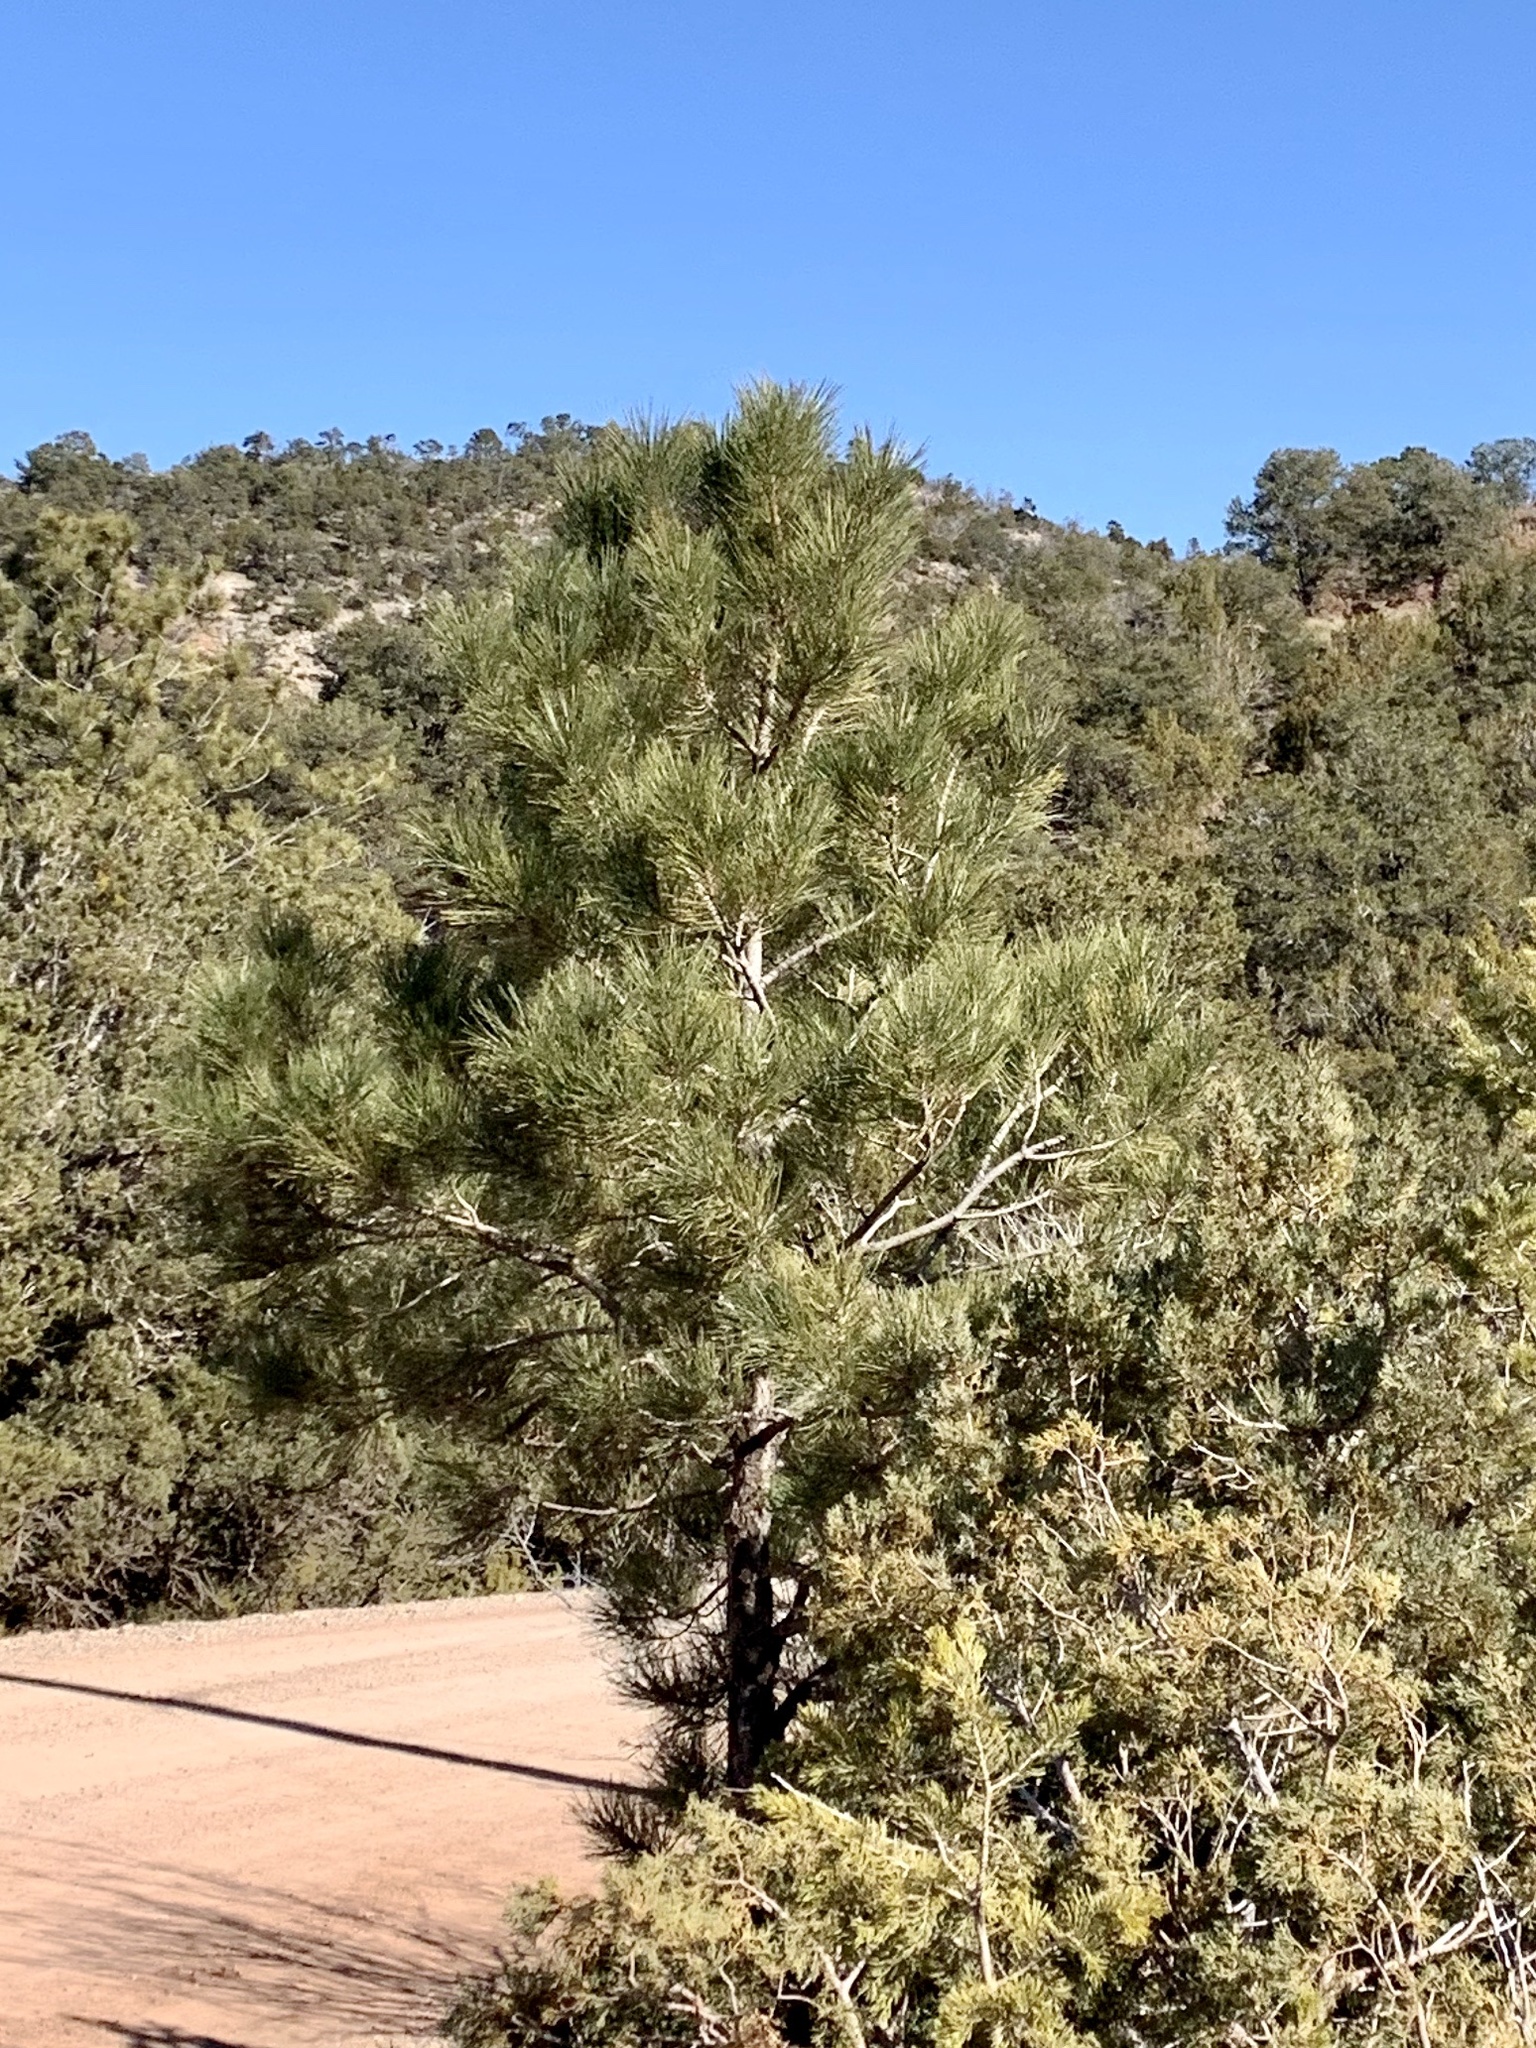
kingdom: Plantae
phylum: Tracheophyta
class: Pinopsida
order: Pinales
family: Pinaceae
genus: Pinus
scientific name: Pinus ponderosa
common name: Western yellow-pine
